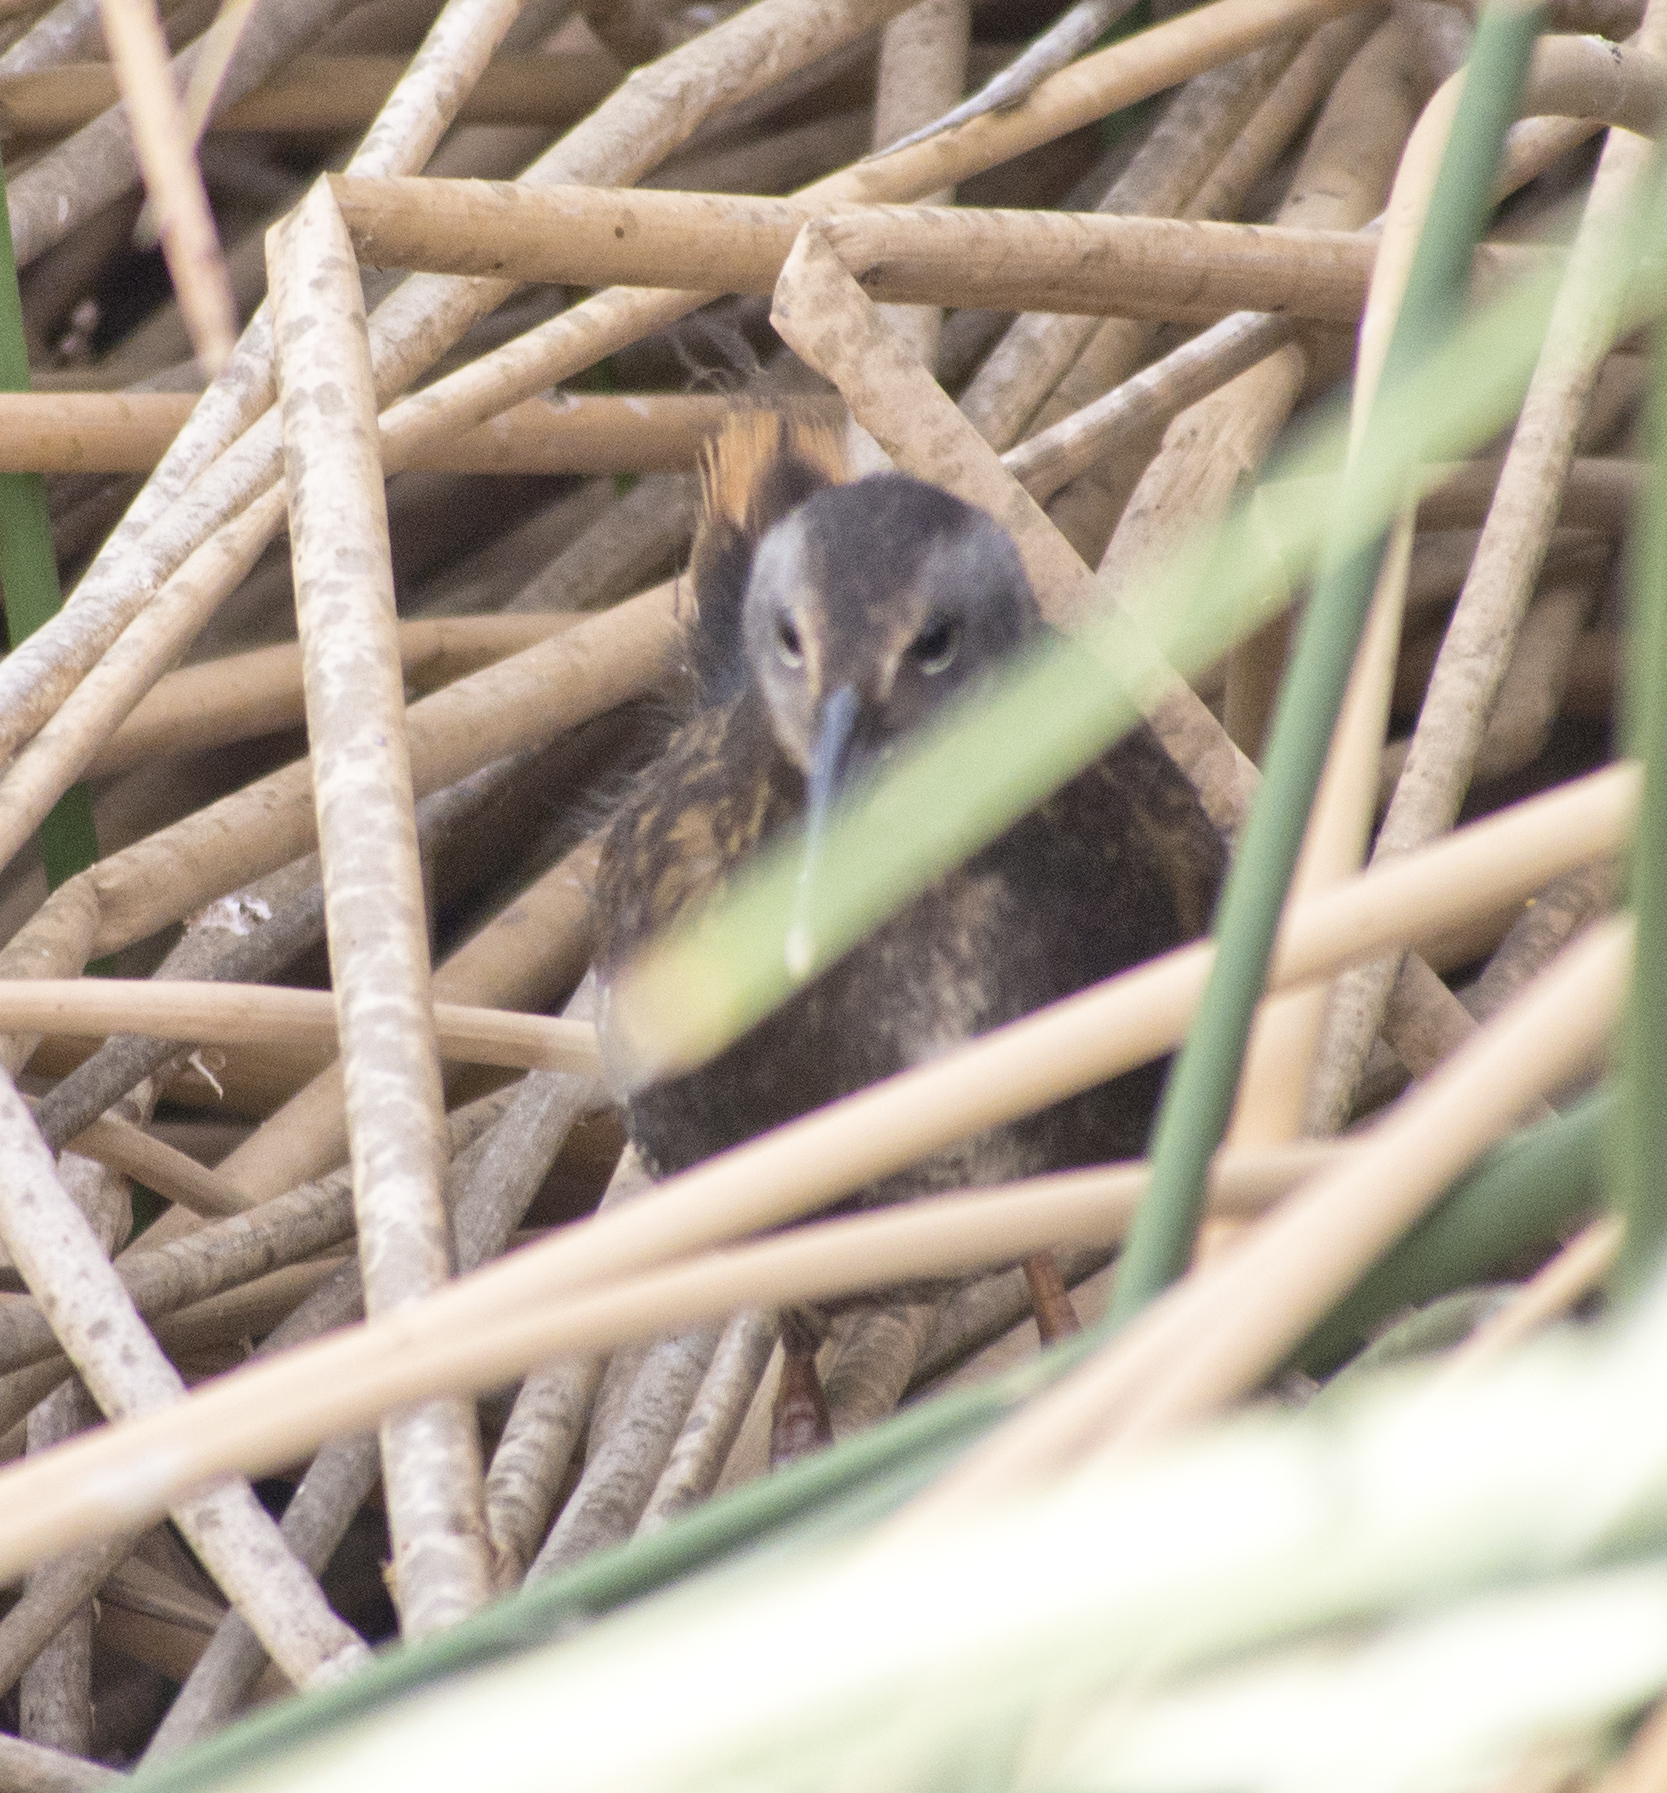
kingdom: Animalia
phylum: Chordata
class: Aves
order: Gruiformes
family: Rallidae
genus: Rallus
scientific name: Rallus limicola
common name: Virginia rail
